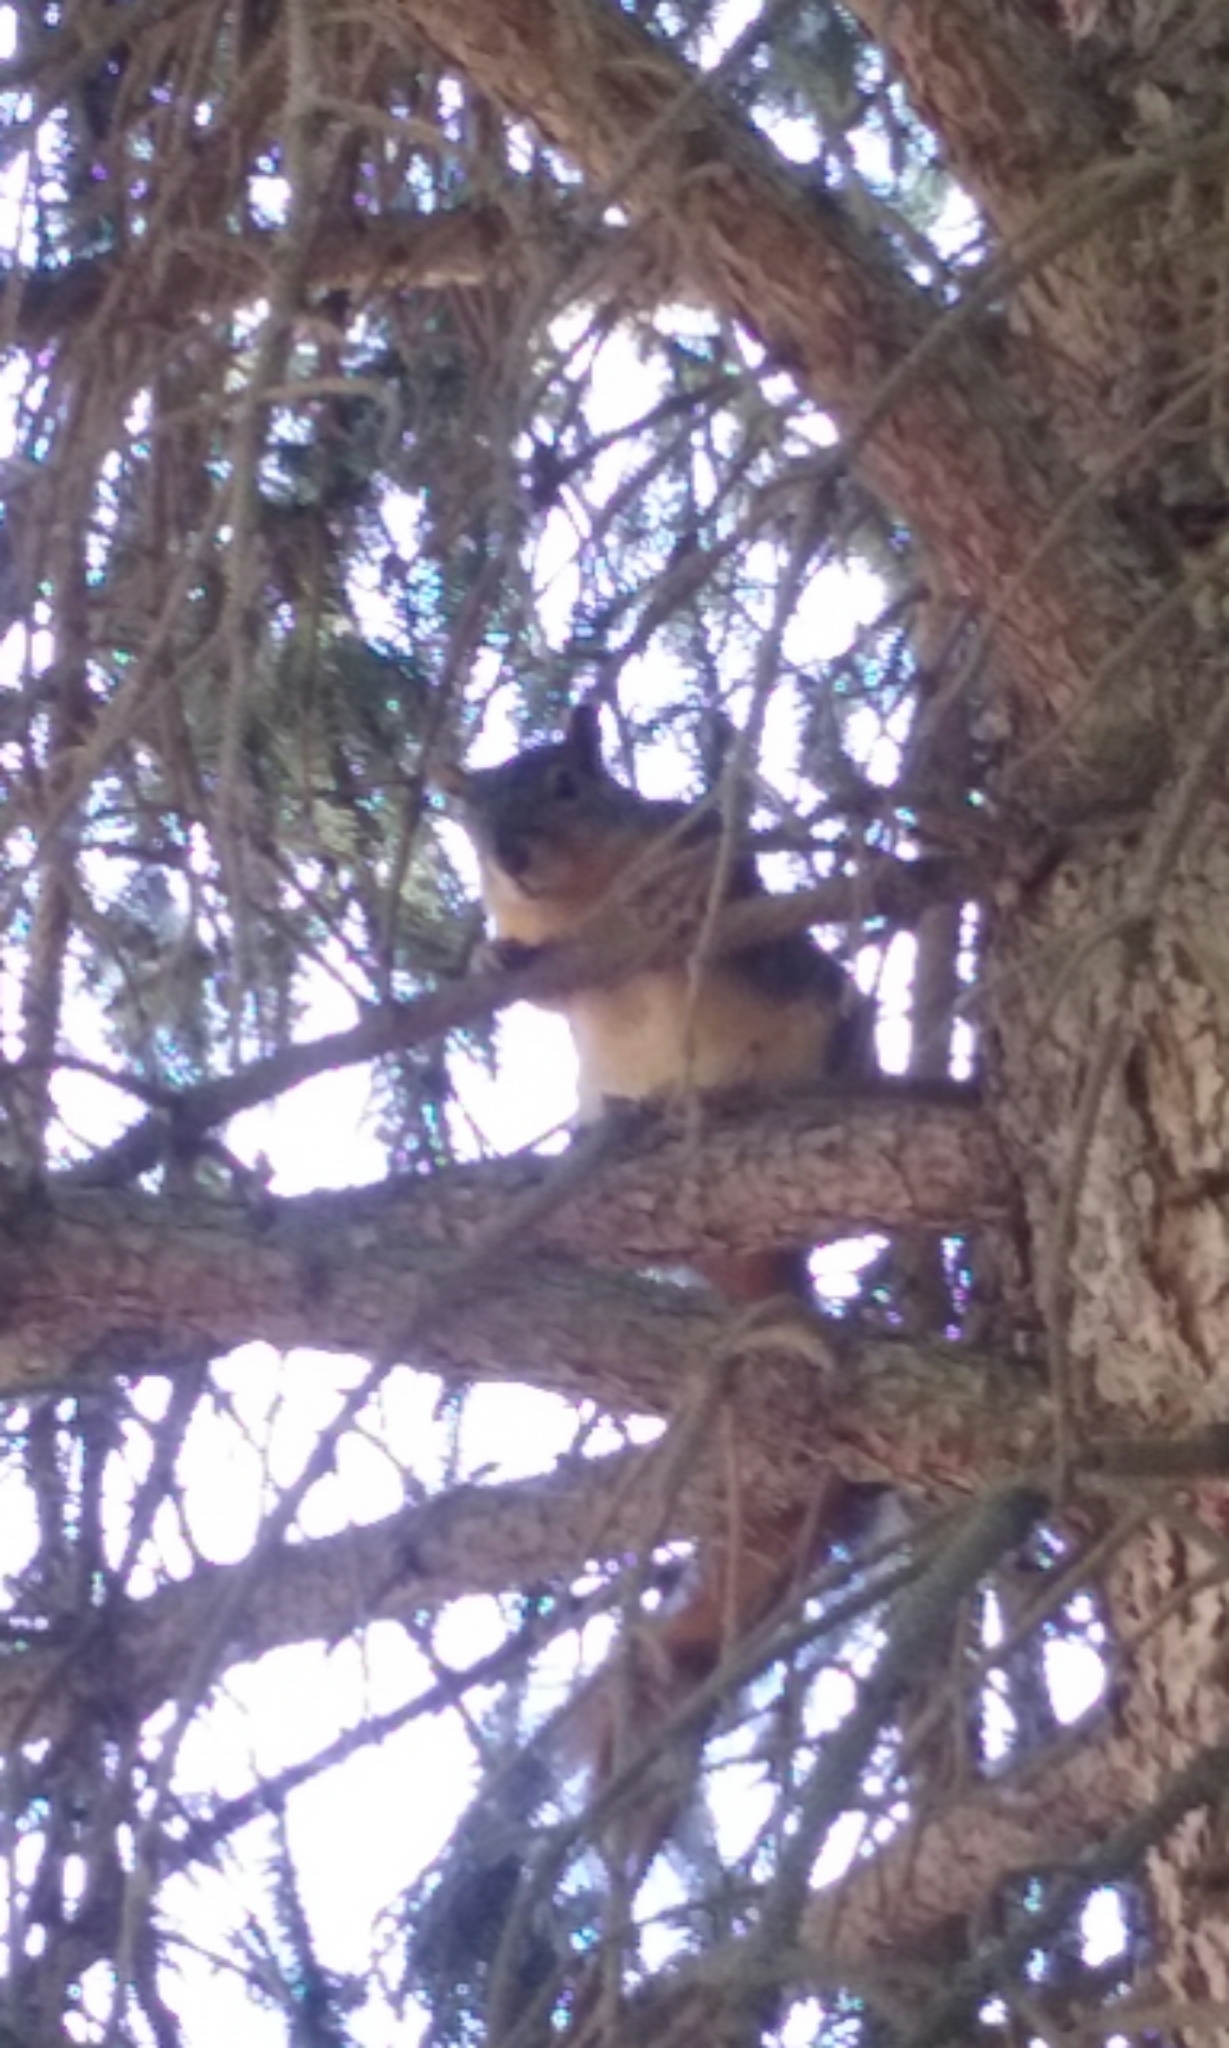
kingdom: Animalia
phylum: Chordata
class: Mammalia
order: Rodentia
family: Sciuridae
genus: Sciurus
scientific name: Sciurus niger
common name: Fox squirrel
